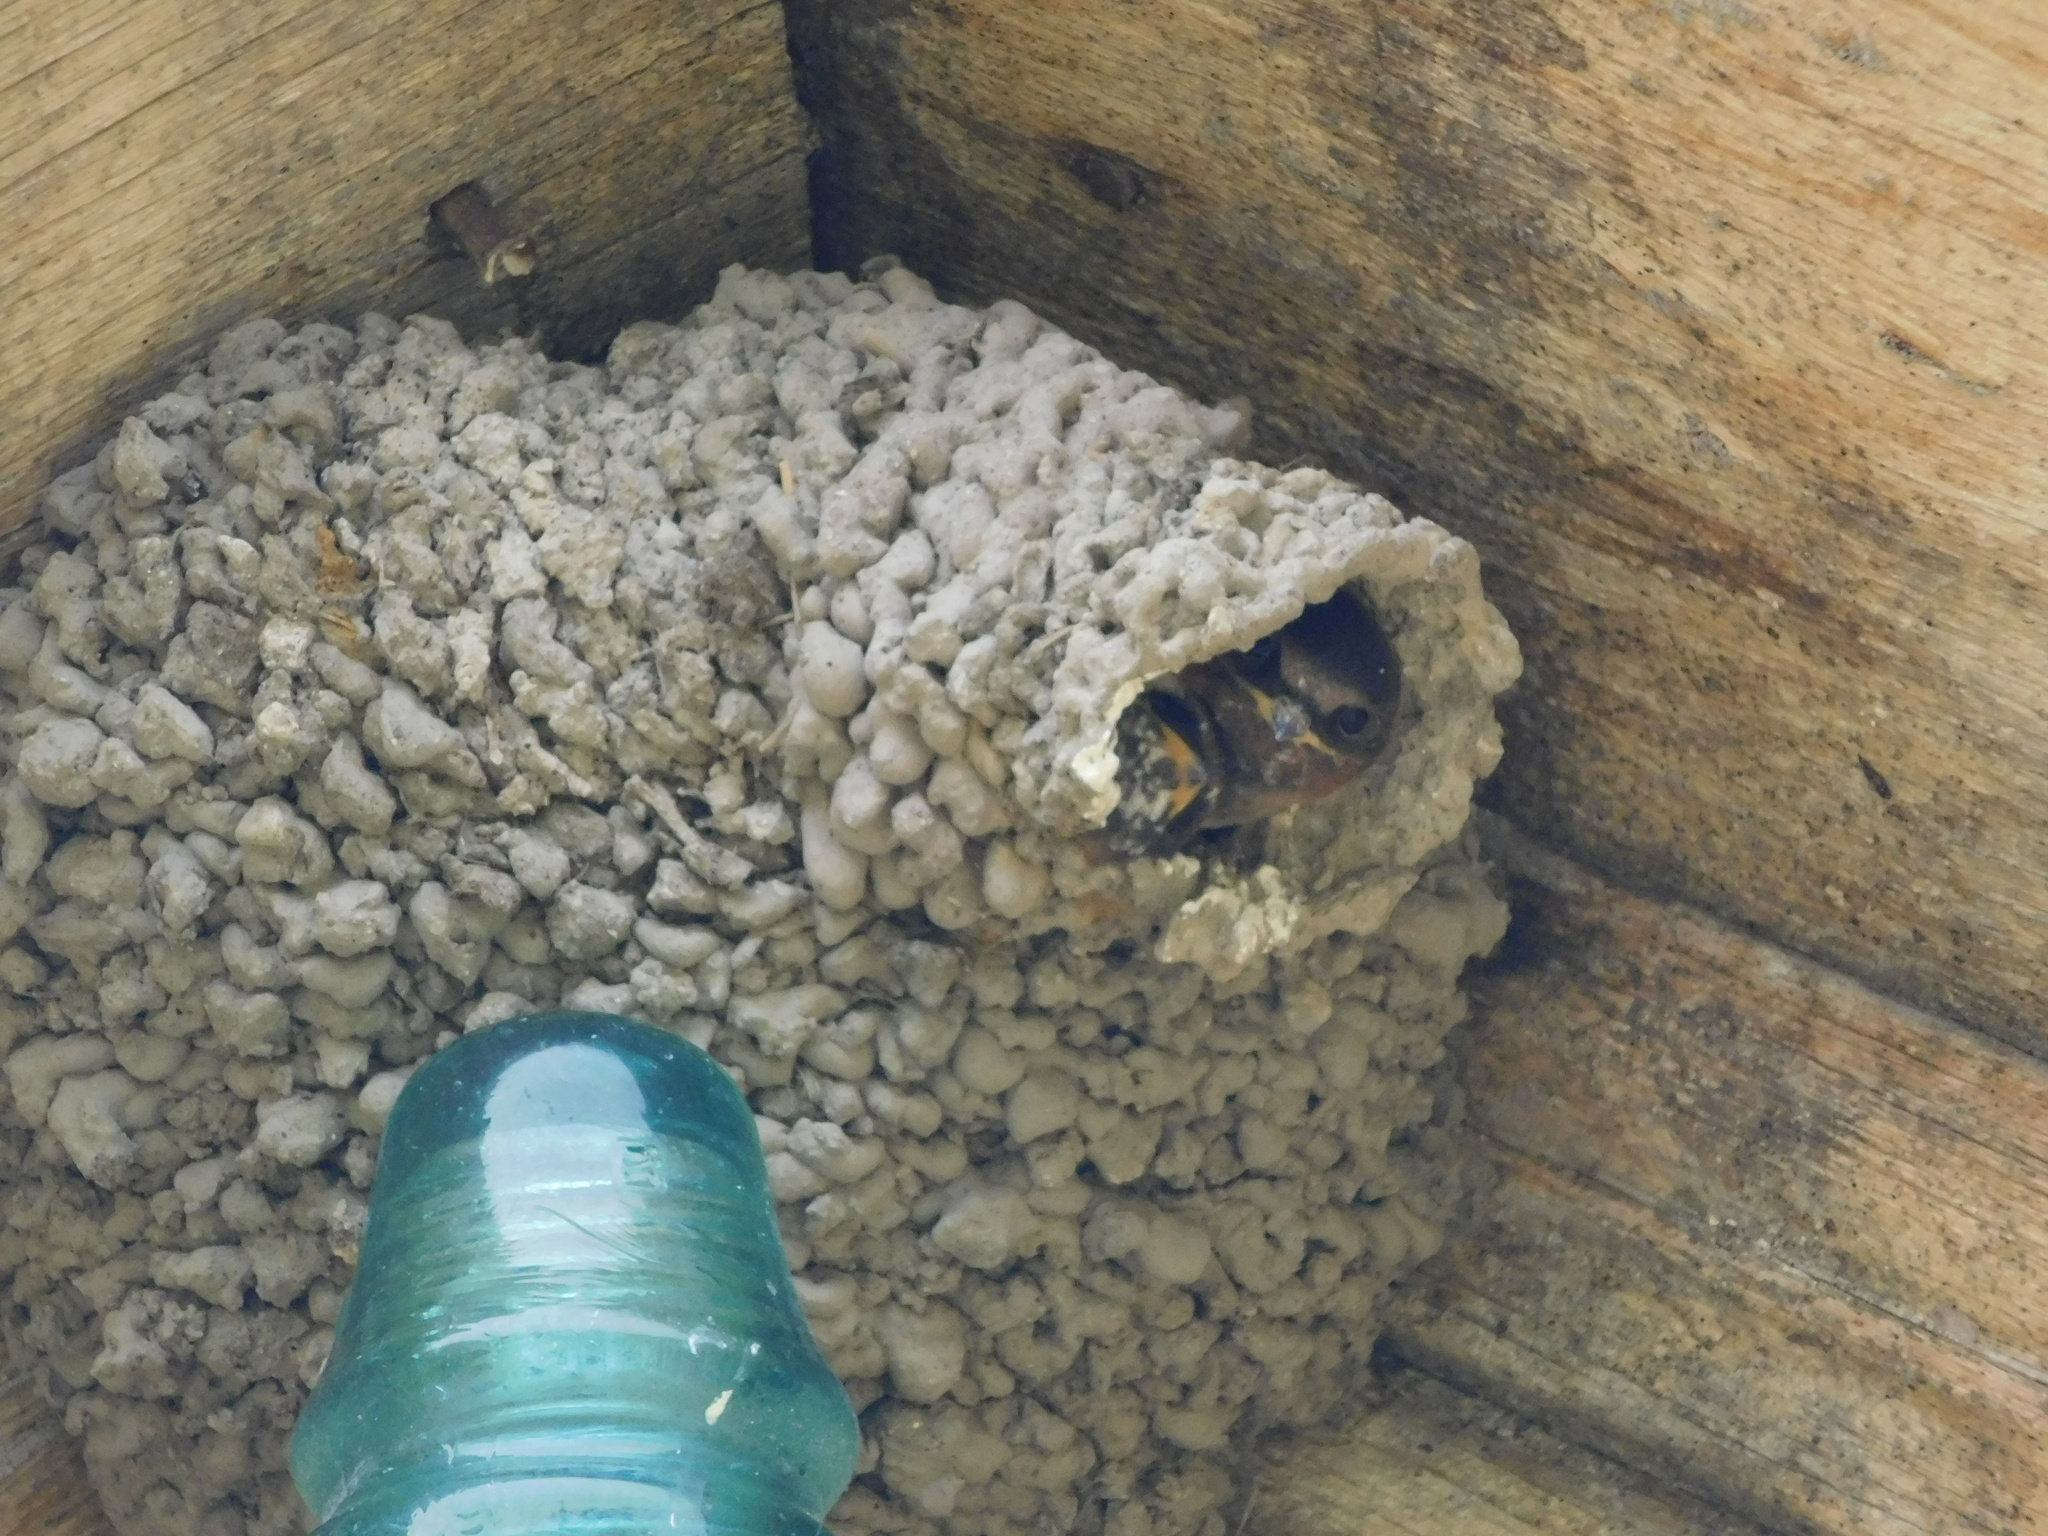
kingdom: Animalia
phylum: Chordata
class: Aves
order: Passeriformes
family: Hirundinidae
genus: Petrochelidon
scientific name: Petrochelidon pyrrhonota
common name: American cliff swallow
